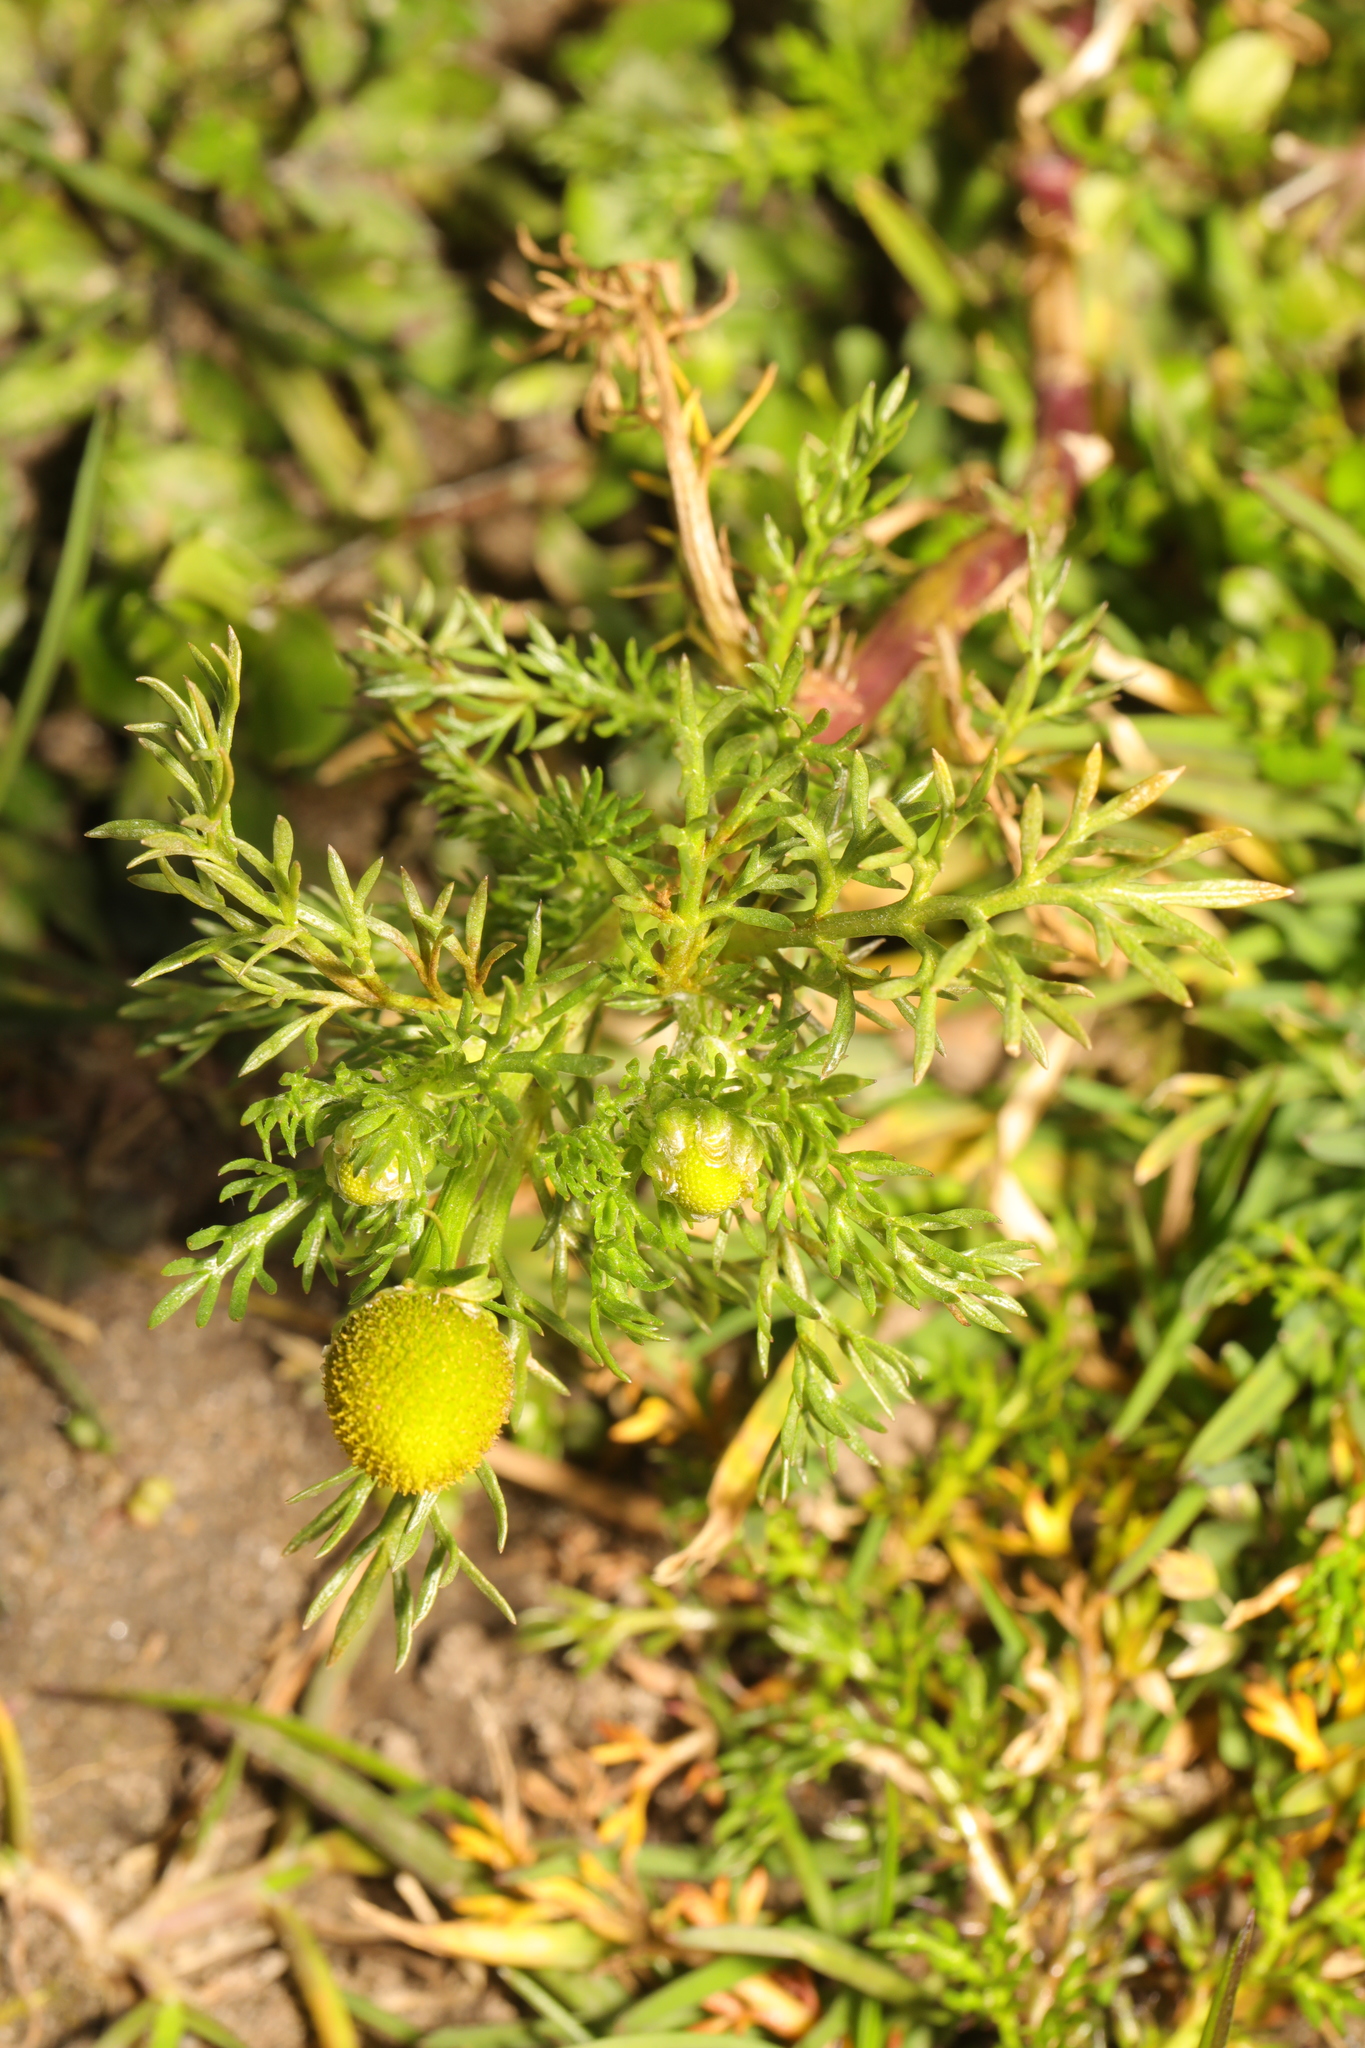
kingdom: Plantae
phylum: Tracheophyta
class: Magnoliopsida
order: Asterales
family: Asteraceae
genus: Matricaria
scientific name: Matricaria discoidea
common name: Disc mayweed
